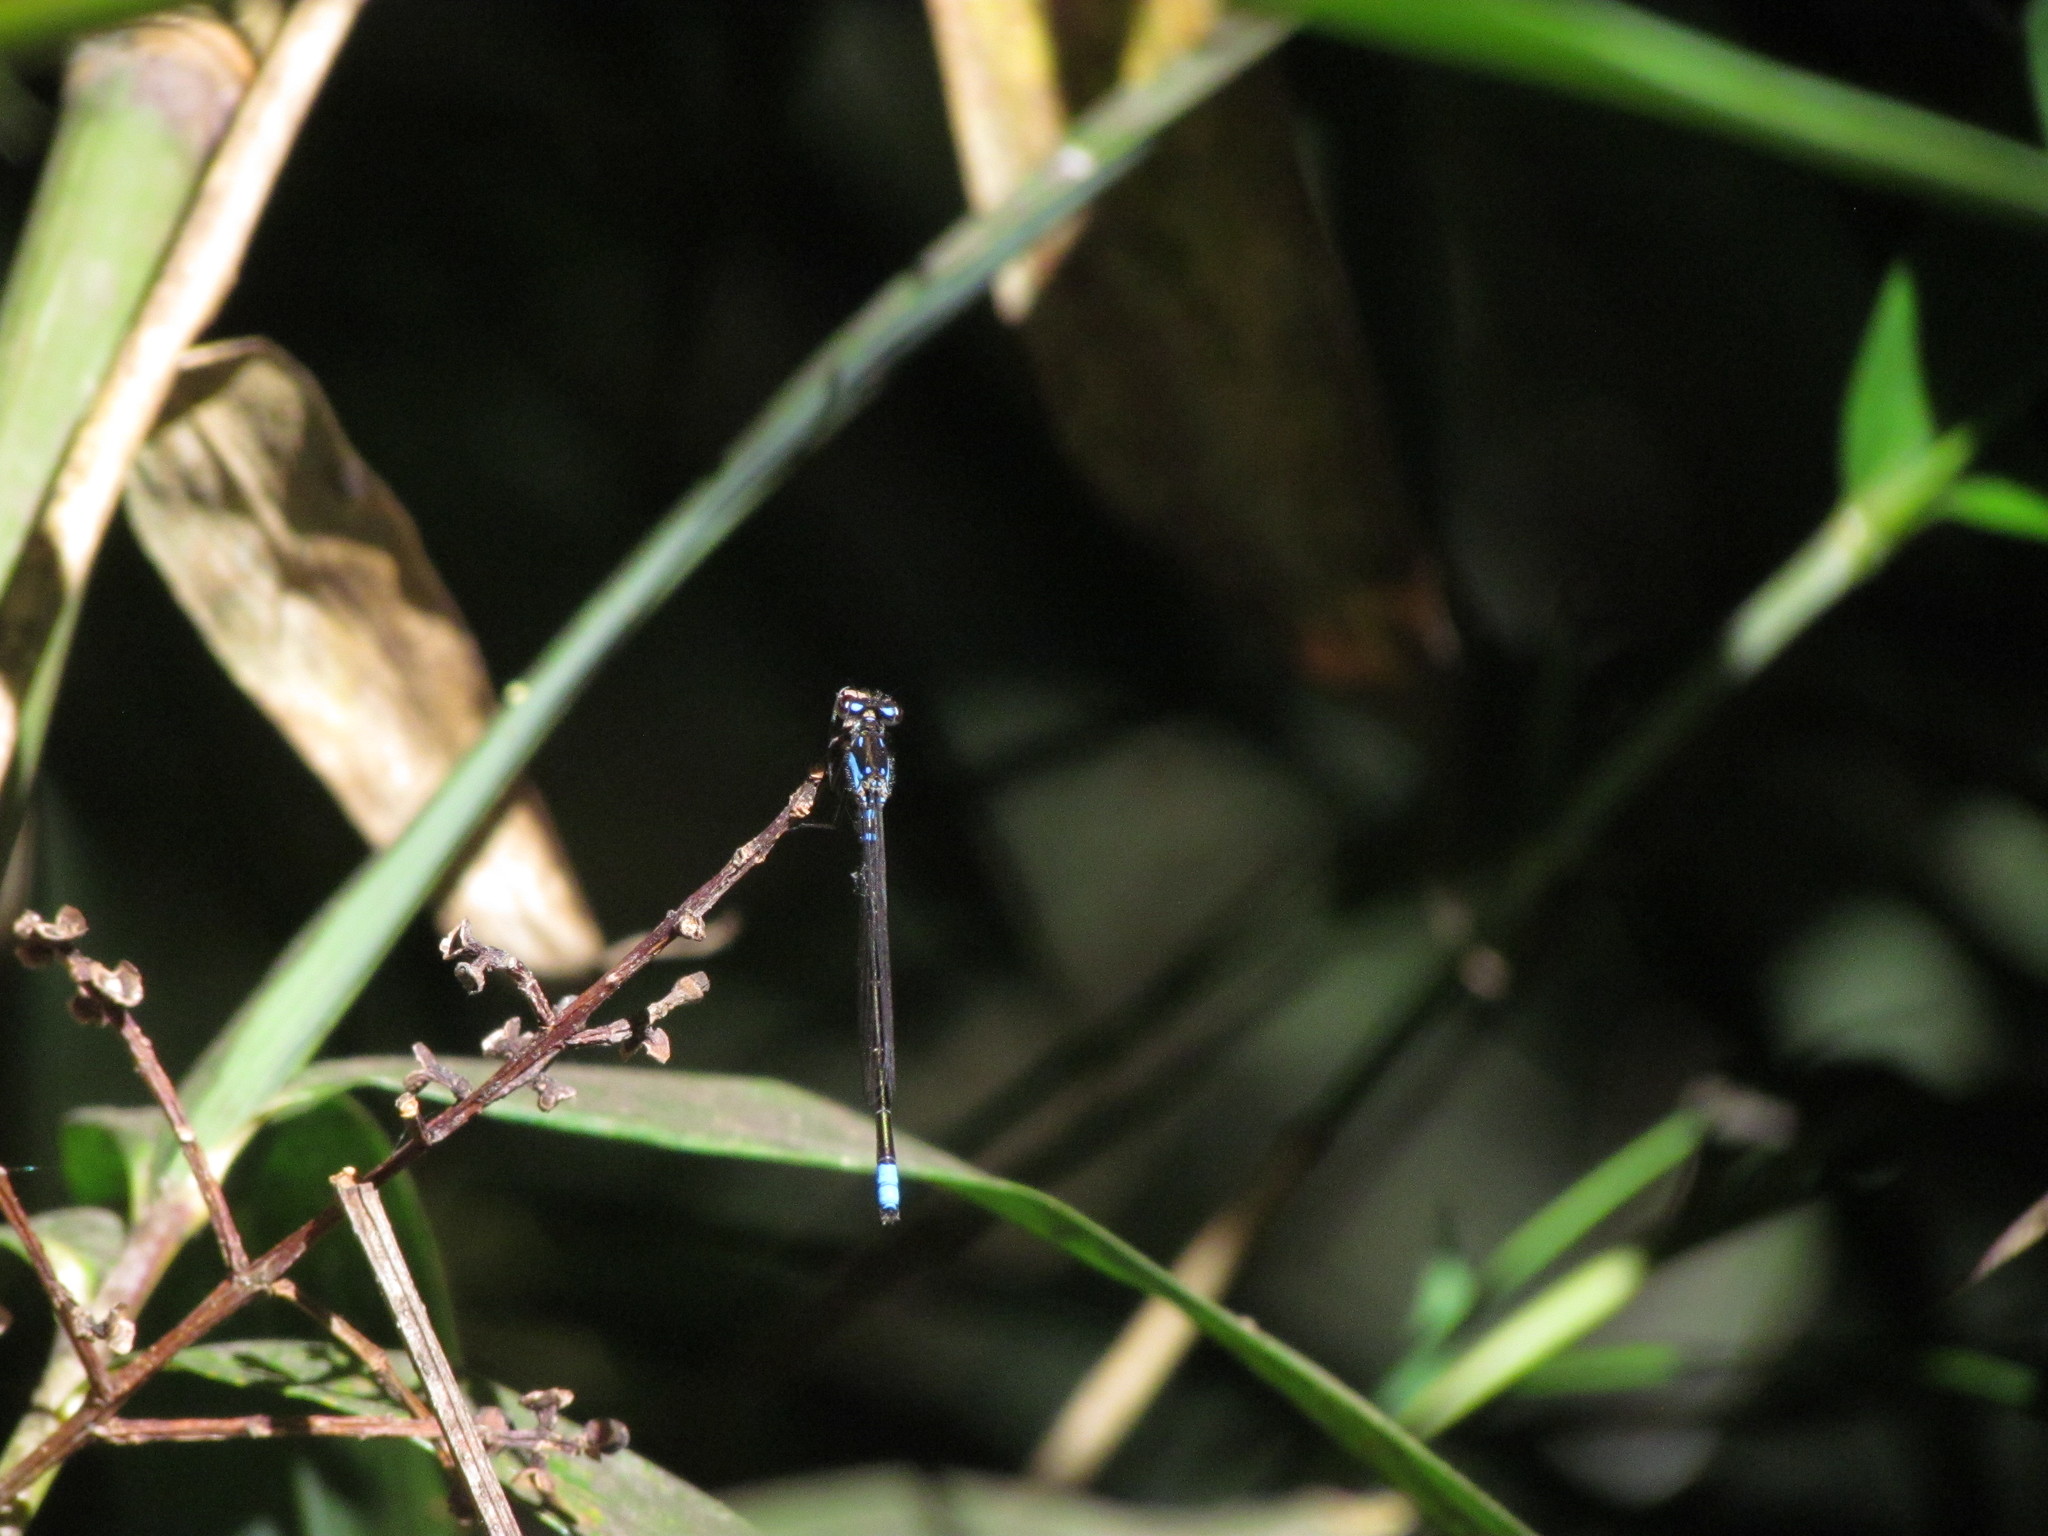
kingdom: Animalia
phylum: Arthropoda
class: Insecta
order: Odonata
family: Coenagrionidae
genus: Cyanallagma
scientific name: Cyanallagma bonariense
